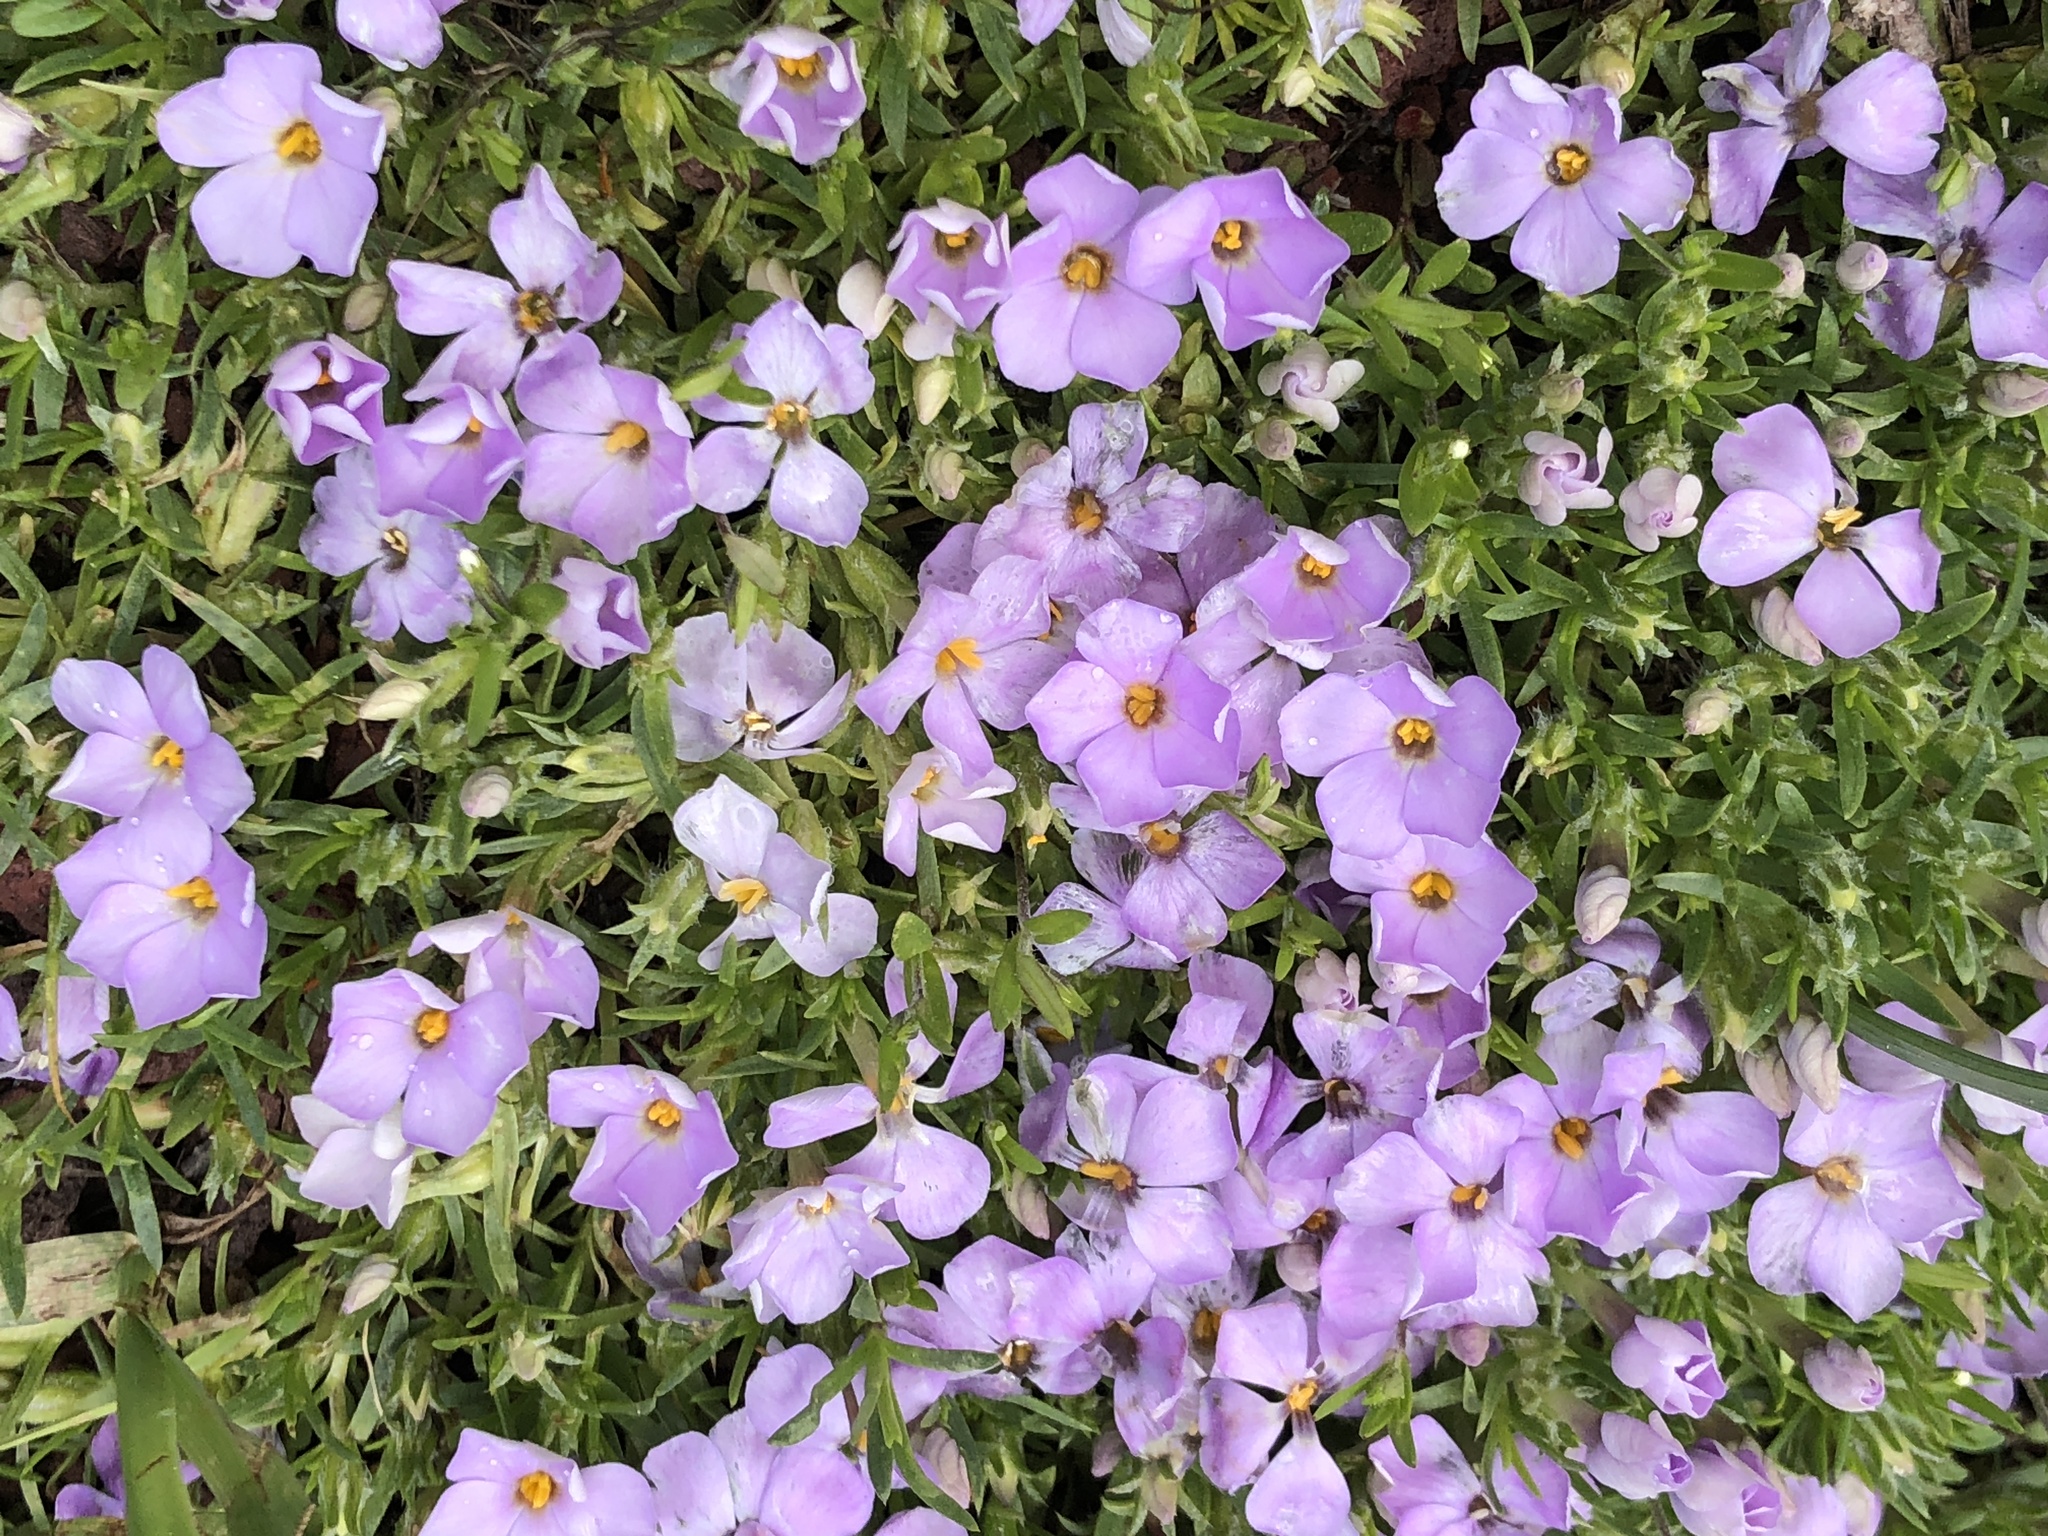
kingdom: Plantae
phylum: Tracheophyta
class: Magnoliopsida
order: Ericales
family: Polemoniaceae
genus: Phlox
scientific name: Phlox diffusa
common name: Mat phlox
